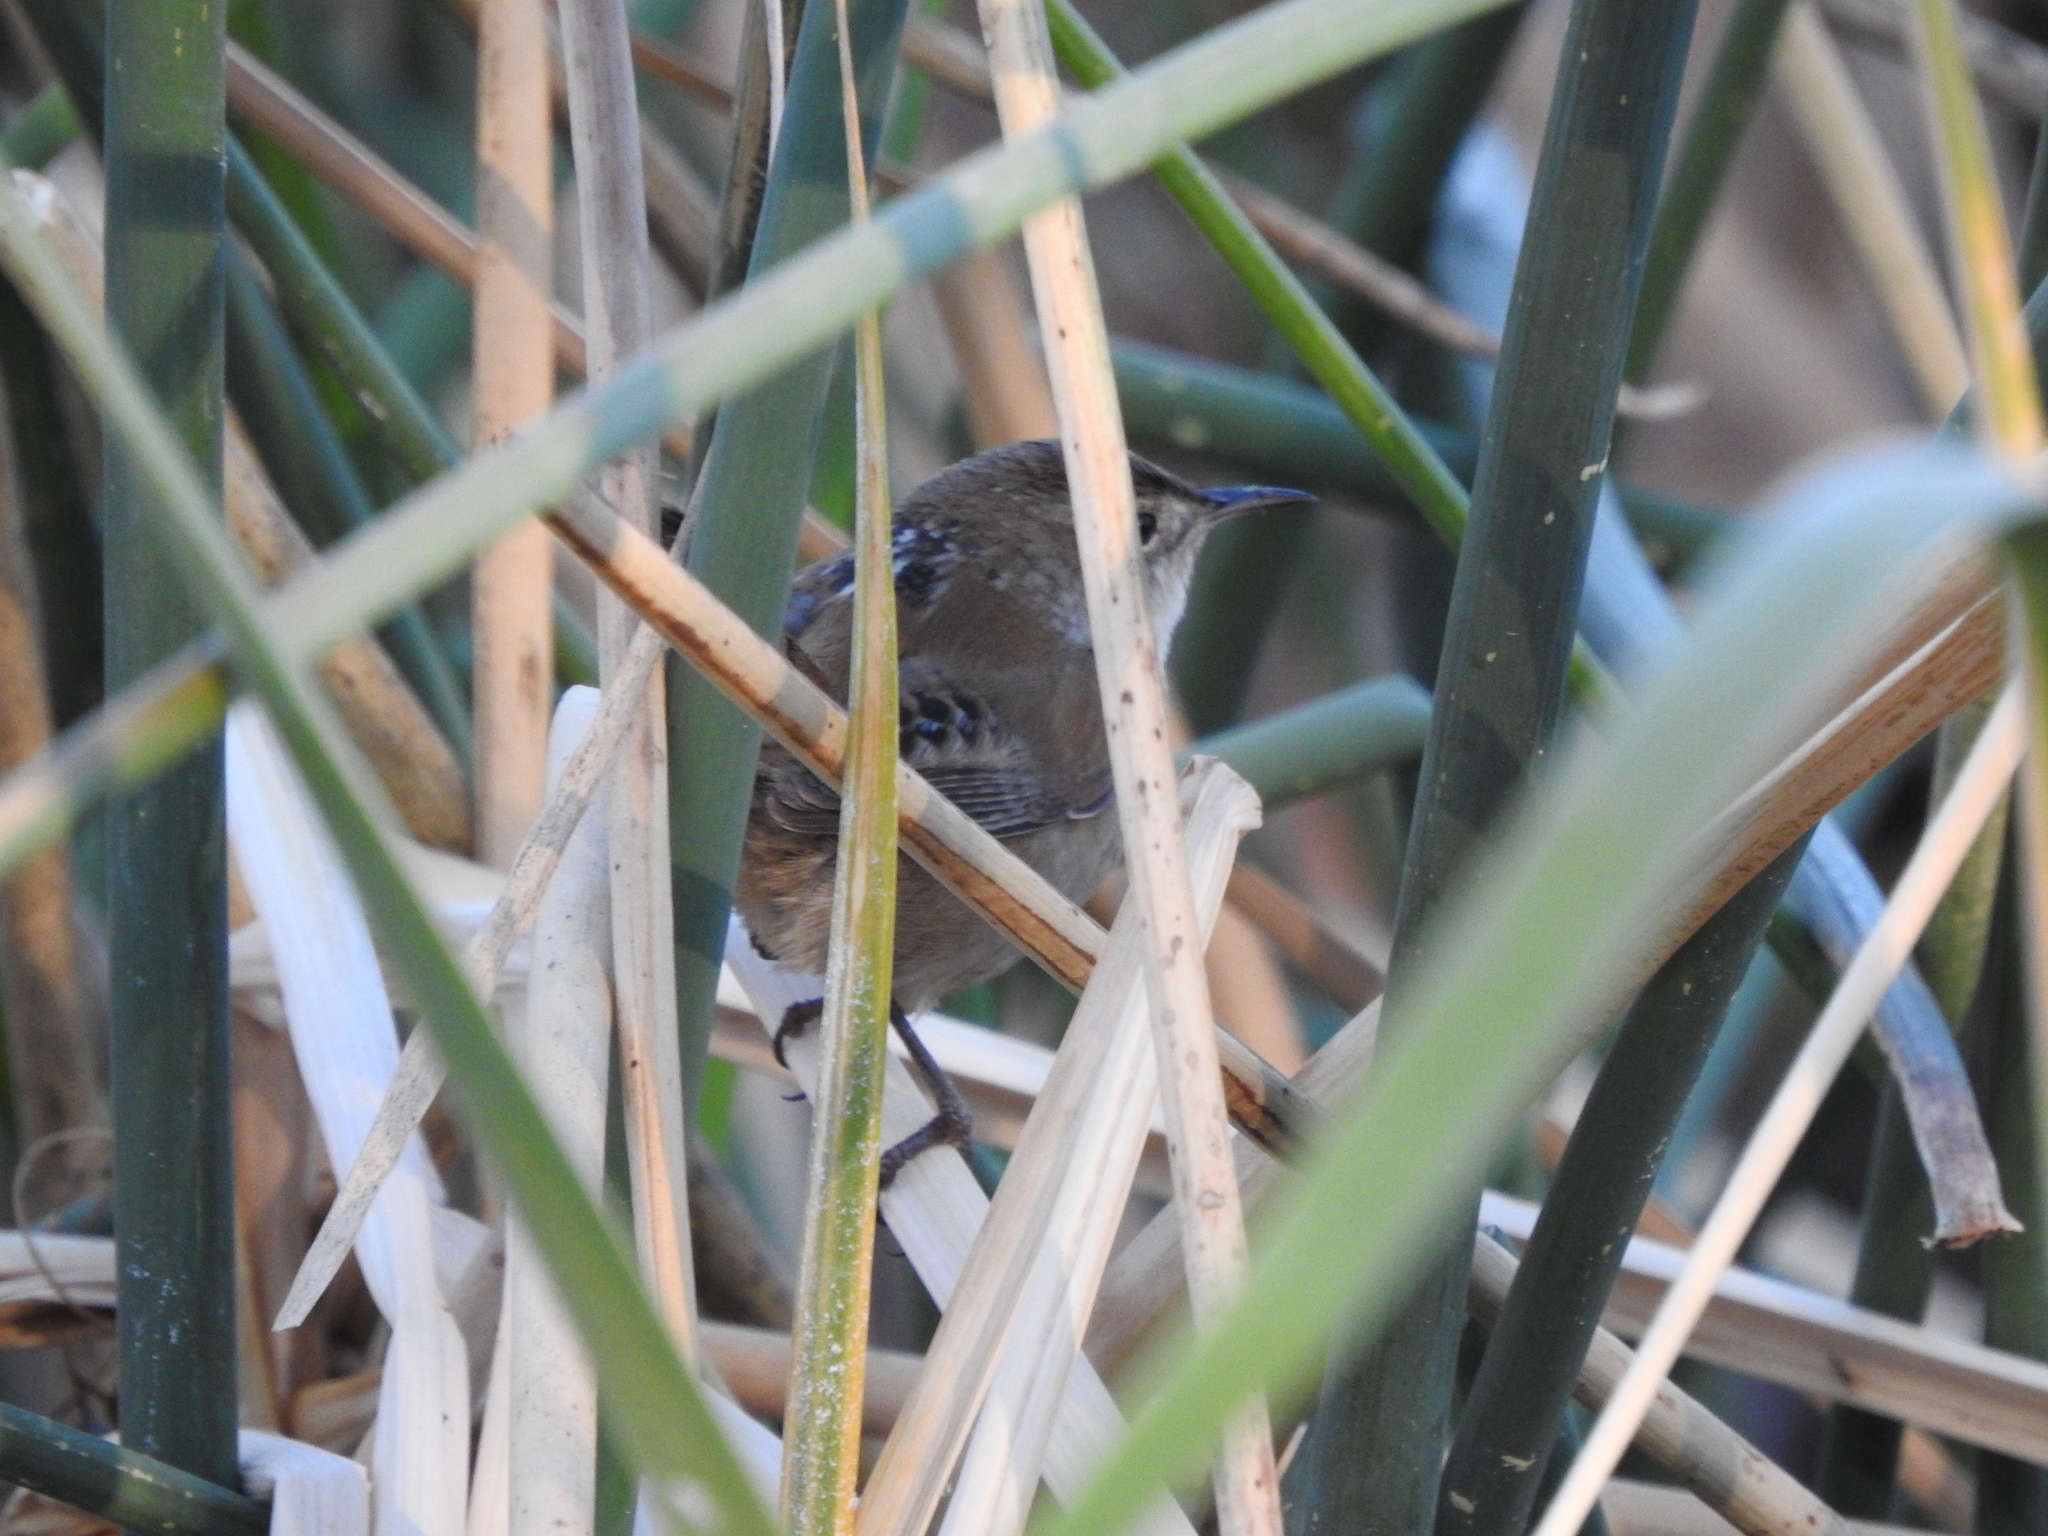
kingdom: Animalia
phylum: Chordata
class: Aves
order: Passeriformes
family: Troglodytidae
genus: Cistothorus
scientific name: Cistothorus palustris
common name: Marsh wren
